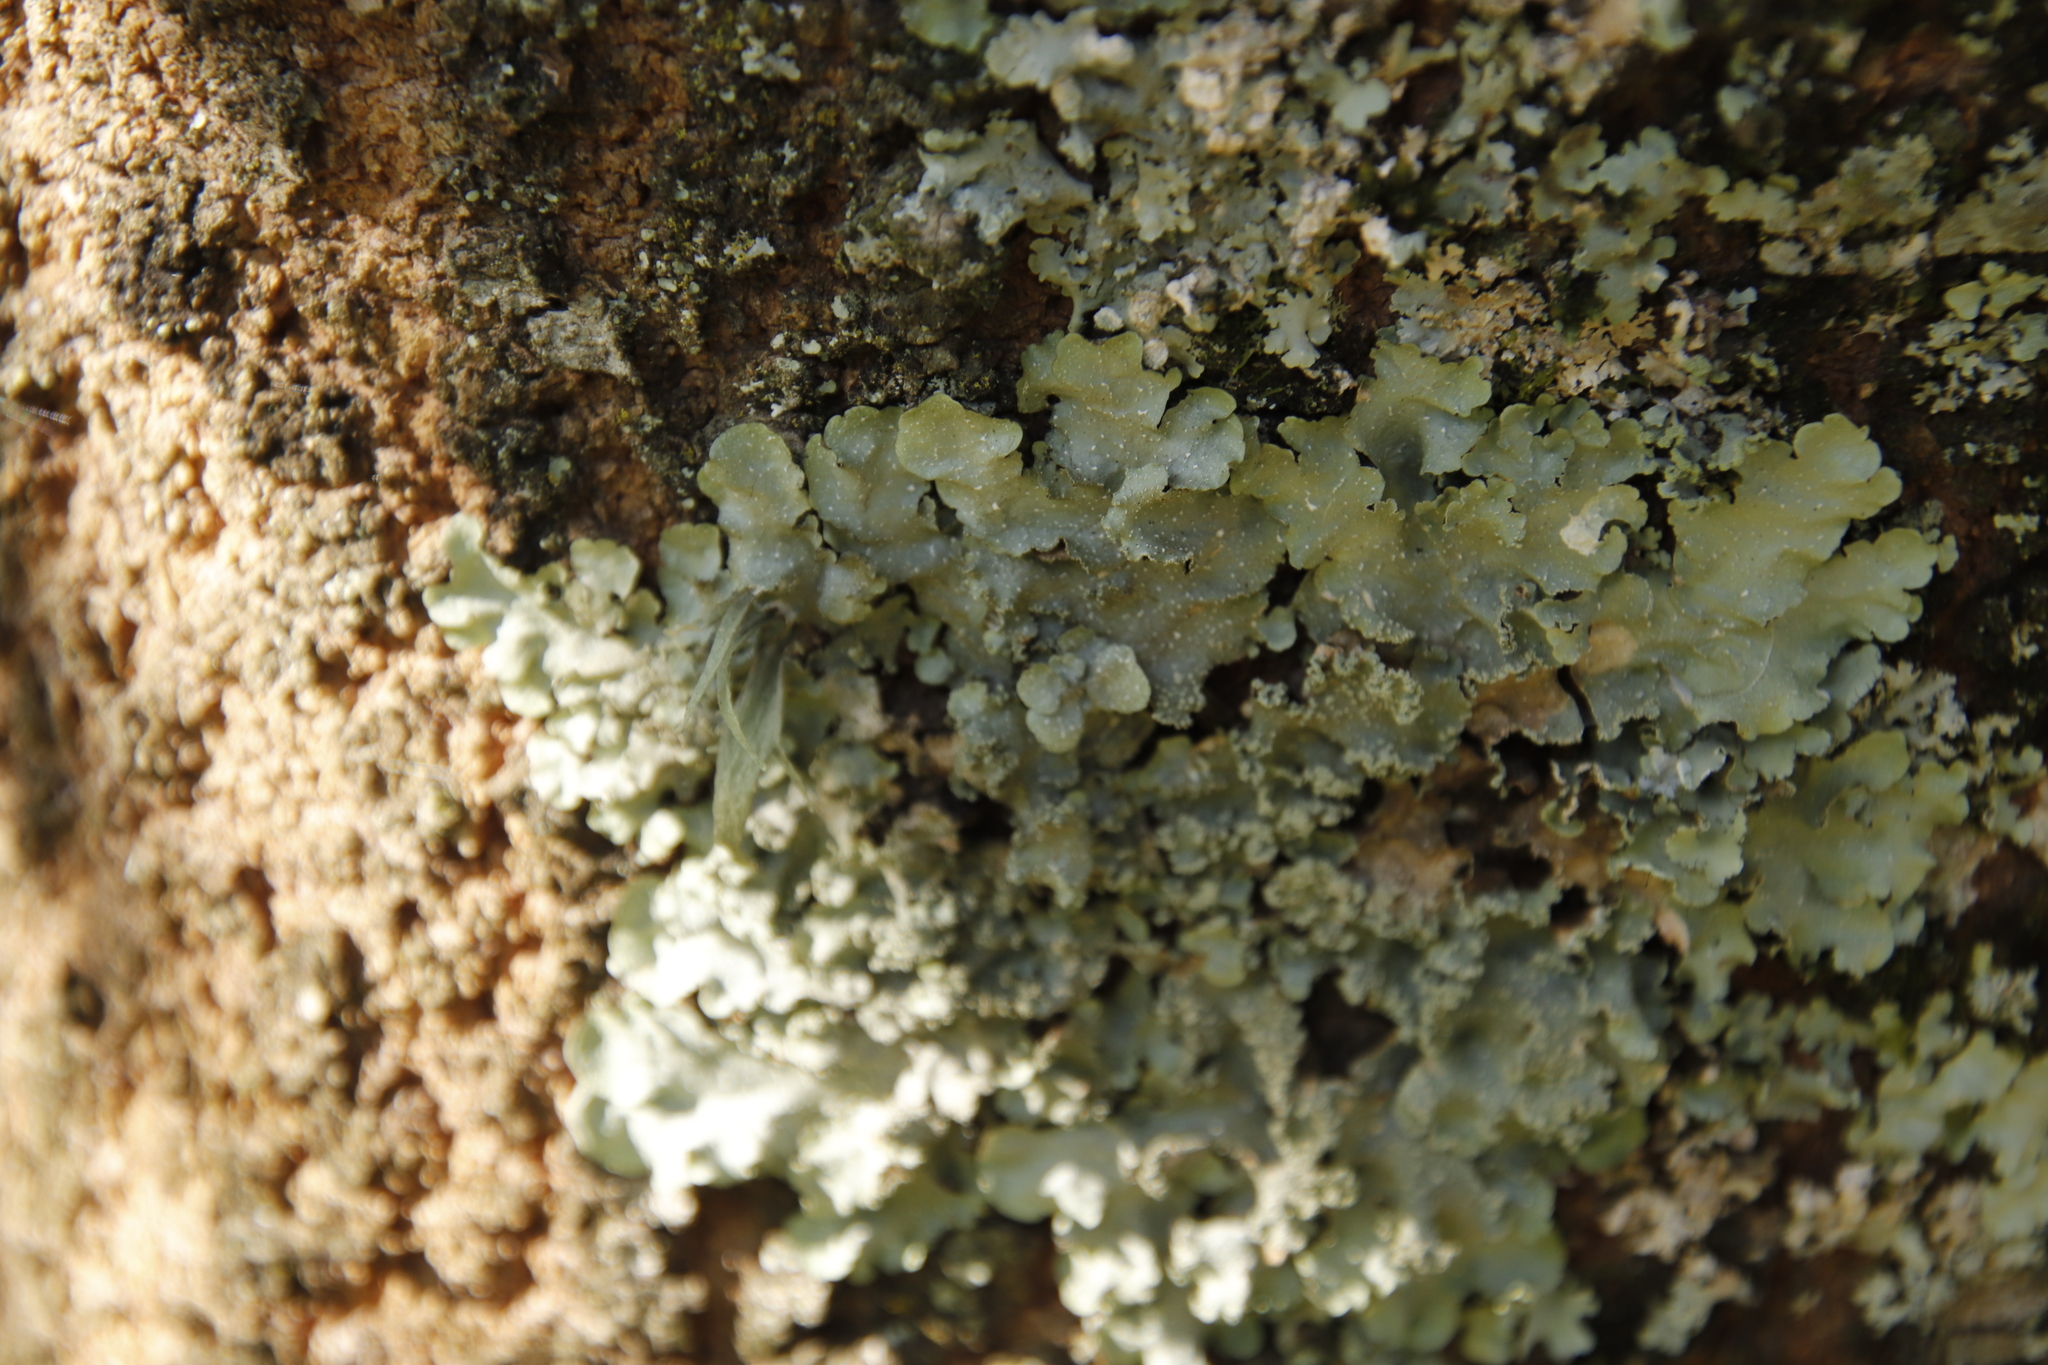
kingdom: Fungi
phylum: Ascomycota
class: Lecanoromycetes
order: Lecanorales
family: Parmeliaceae
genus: Flavopunctelia
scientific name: Flavopunctelia flaventior
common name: Speckled greenshield
